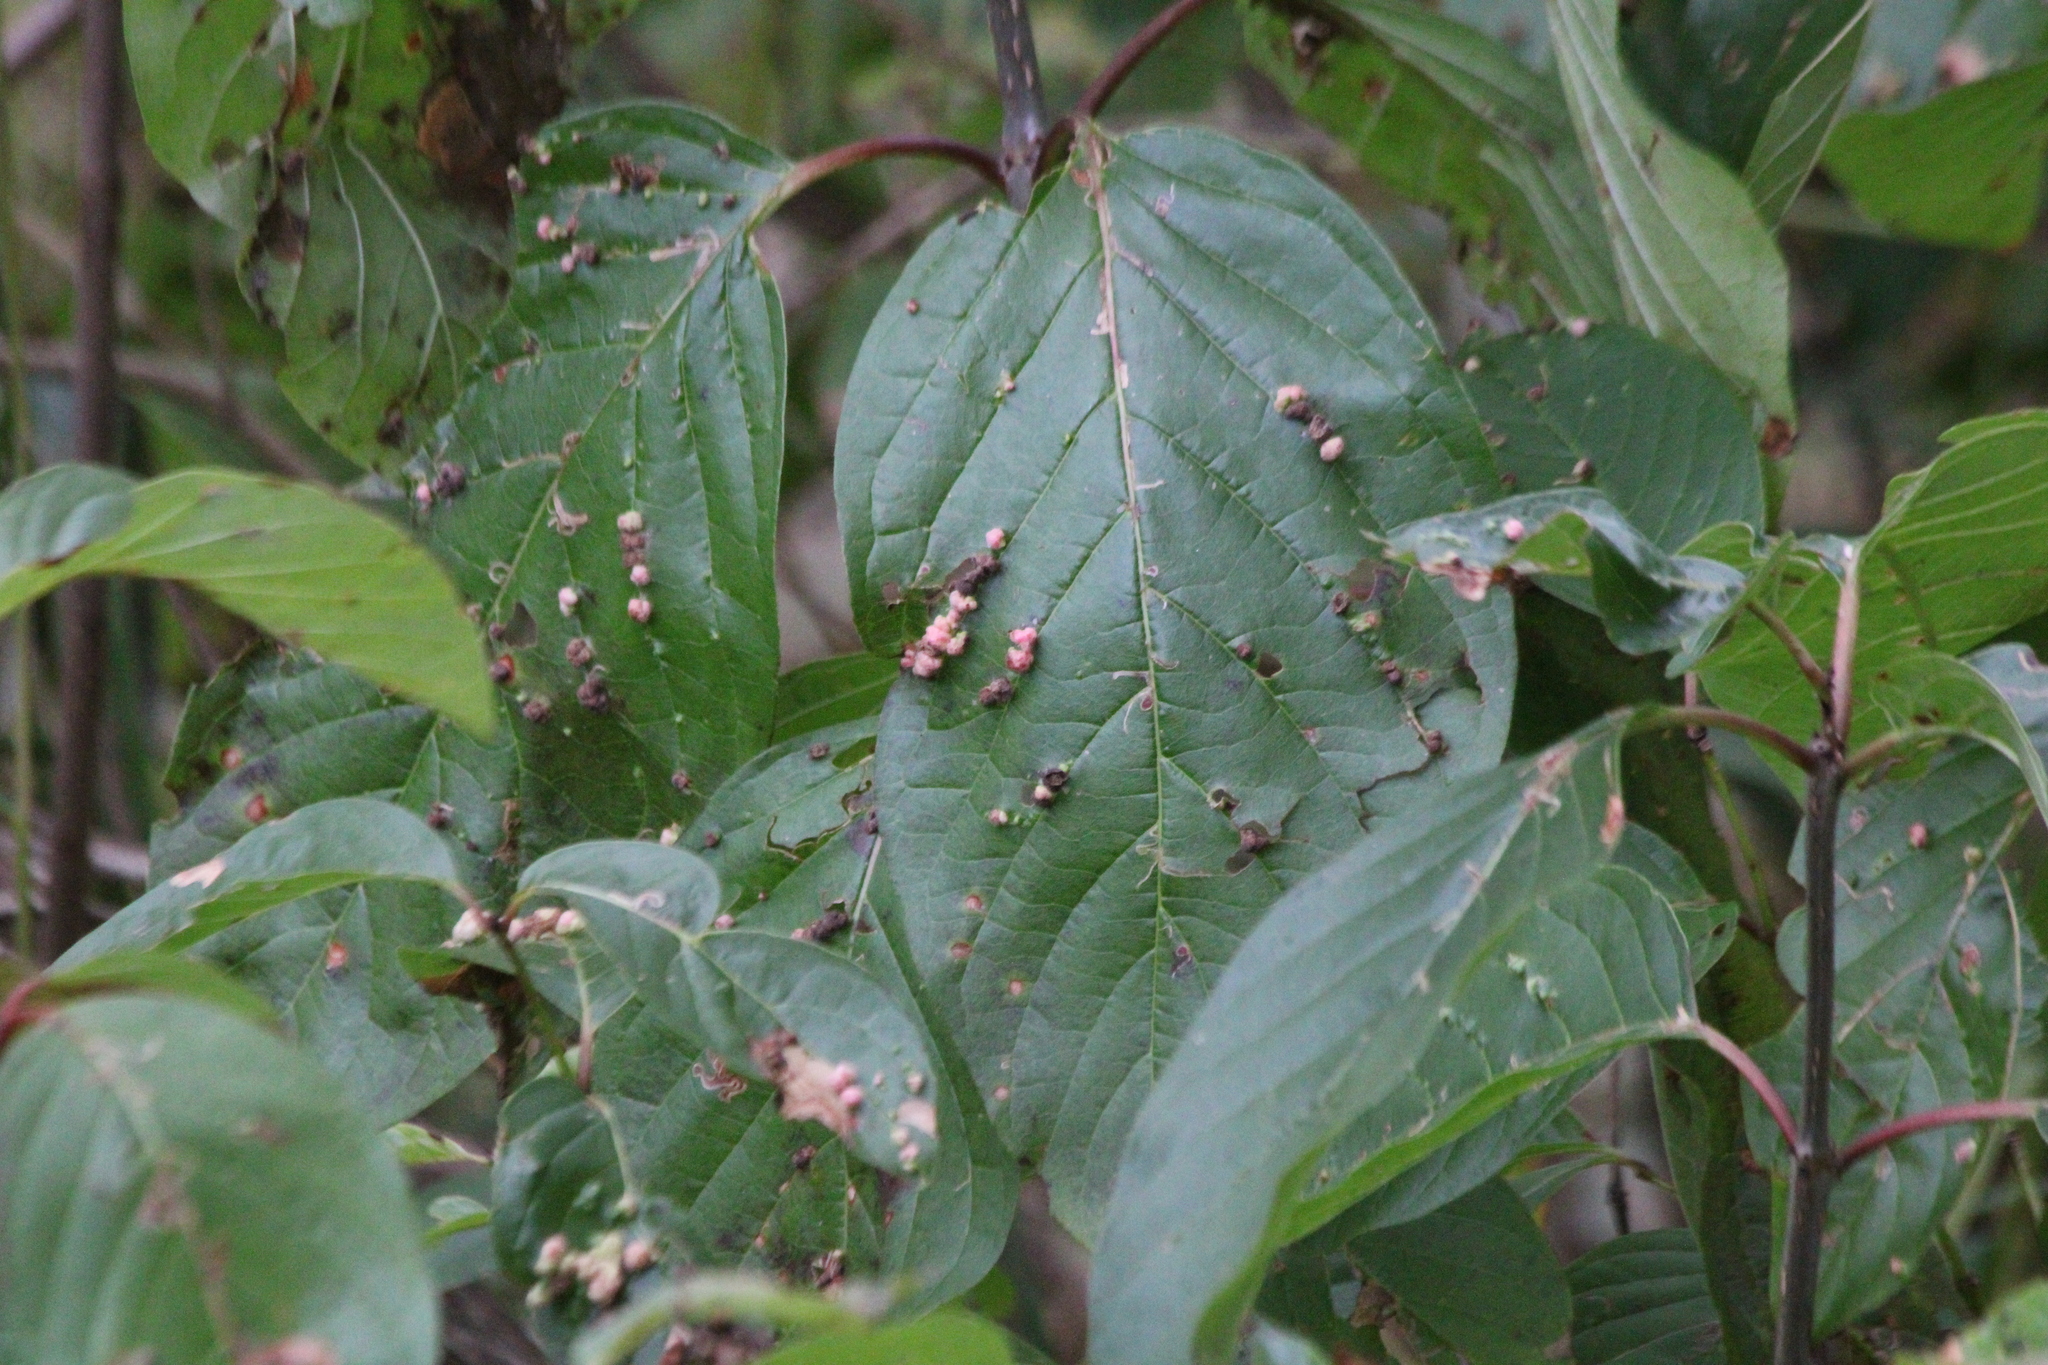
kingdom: Animalia
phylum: Arthropoda
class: Arachnida
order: Trombidiformes
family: Eriophyidae
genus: Aceria
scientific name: Aceria
